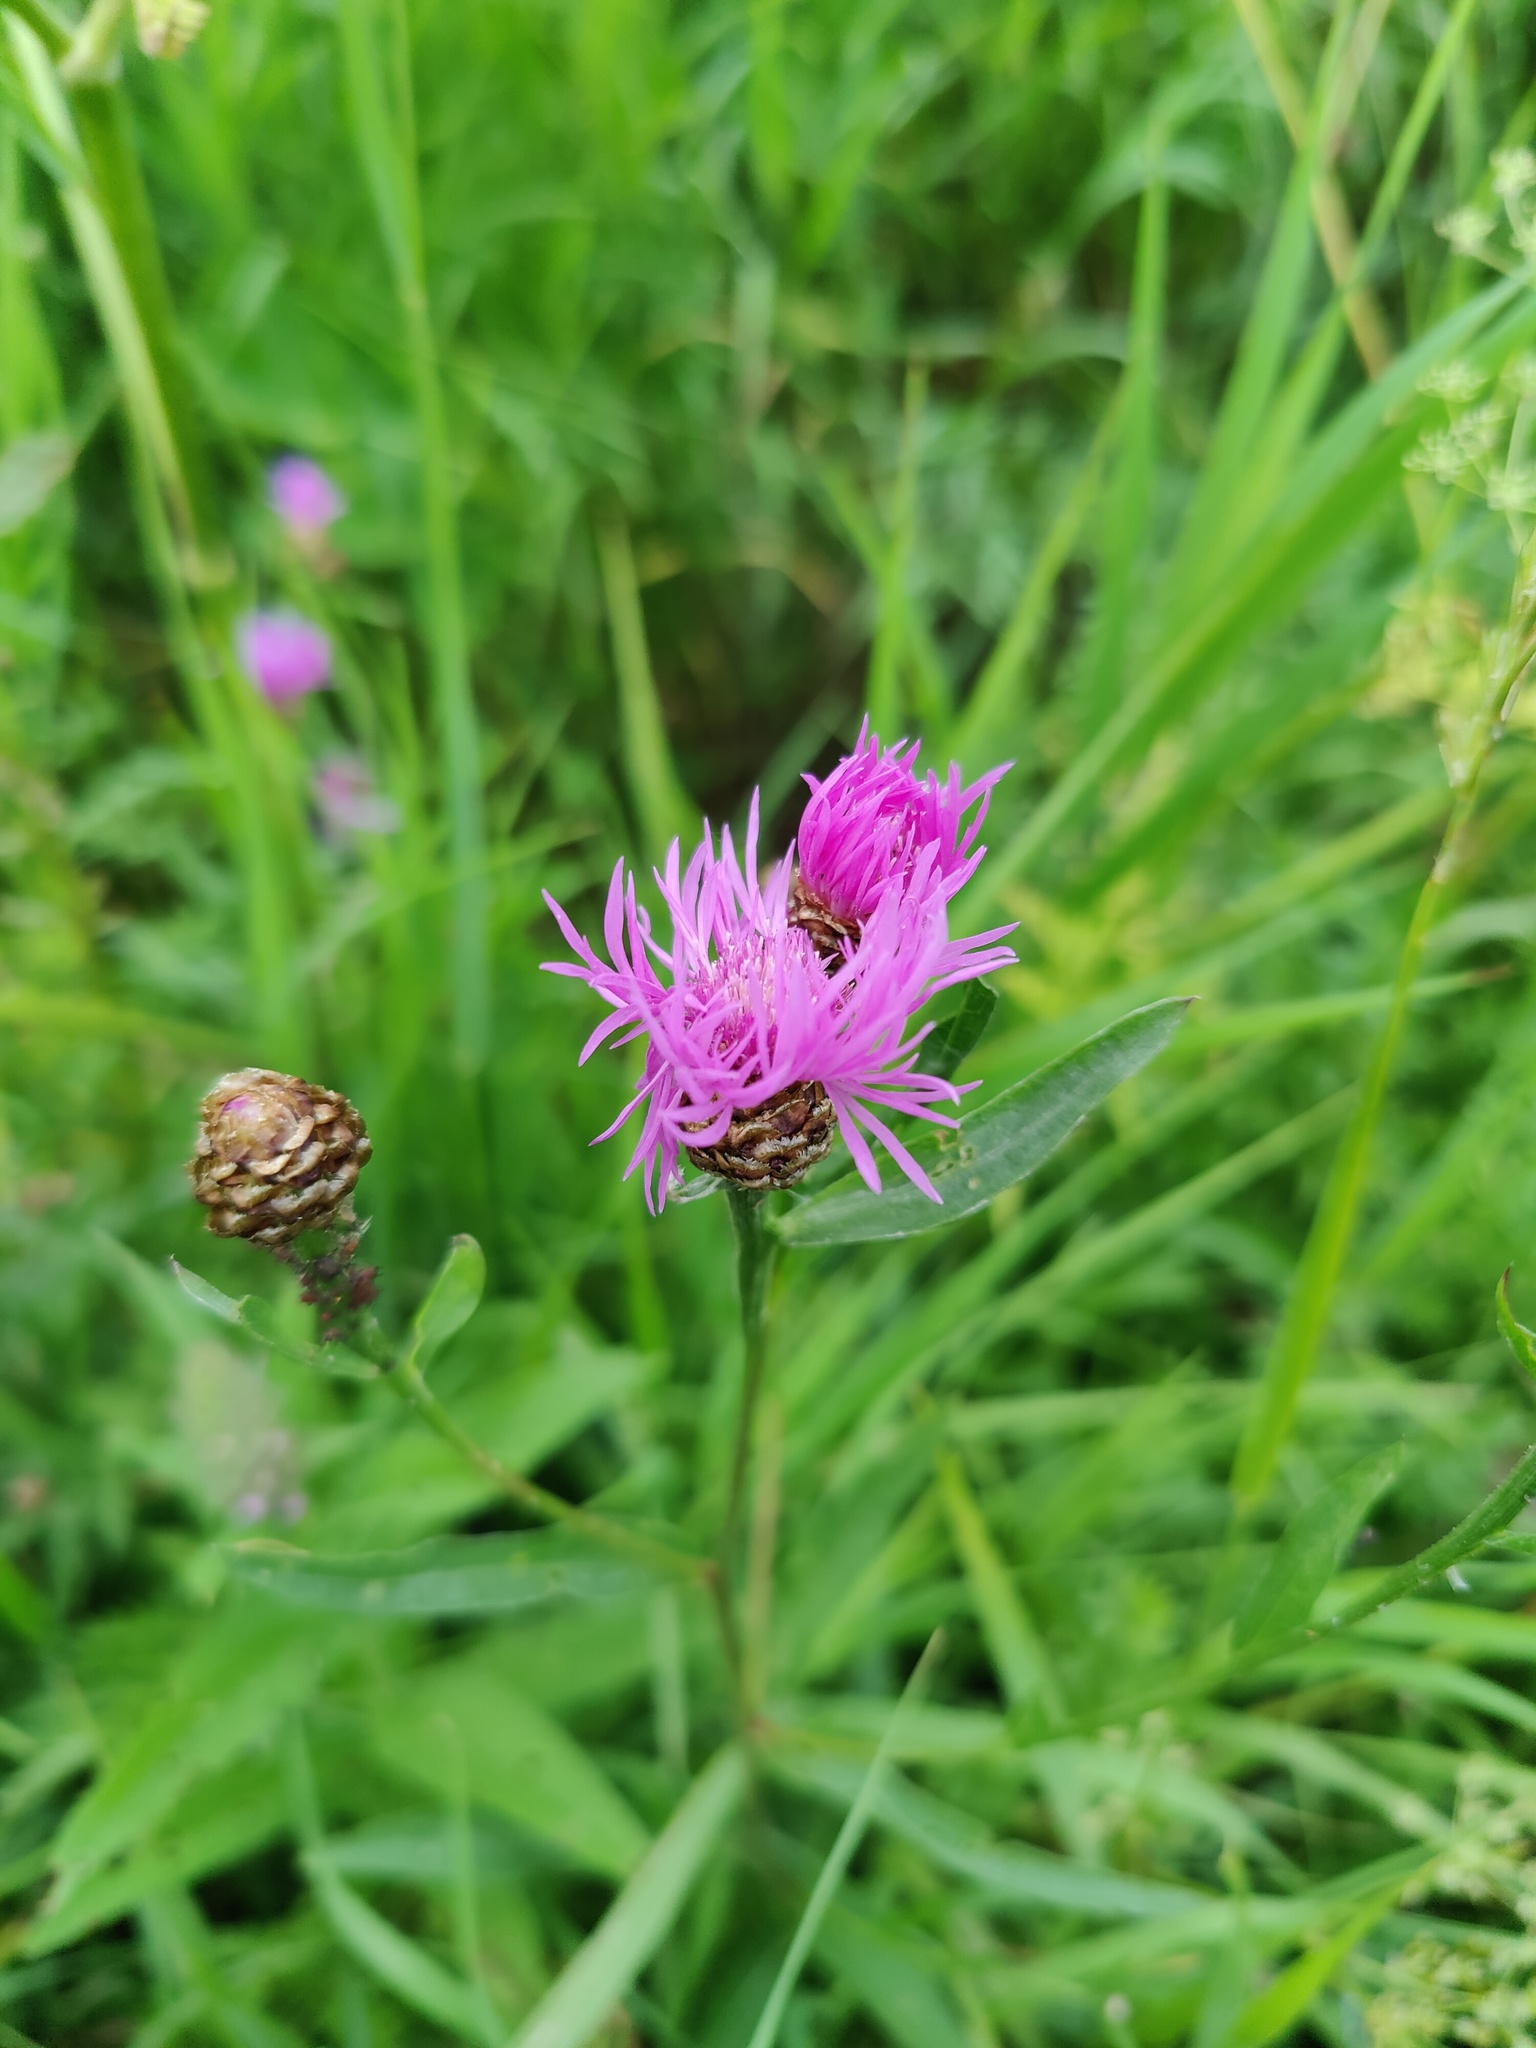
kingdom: Plantae
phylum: Tracheophyta
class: Magnoliopsida
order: Asterales
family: Asteraceae
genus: Centaurea
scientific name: Centaurea jacea
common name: Brown knapweed
